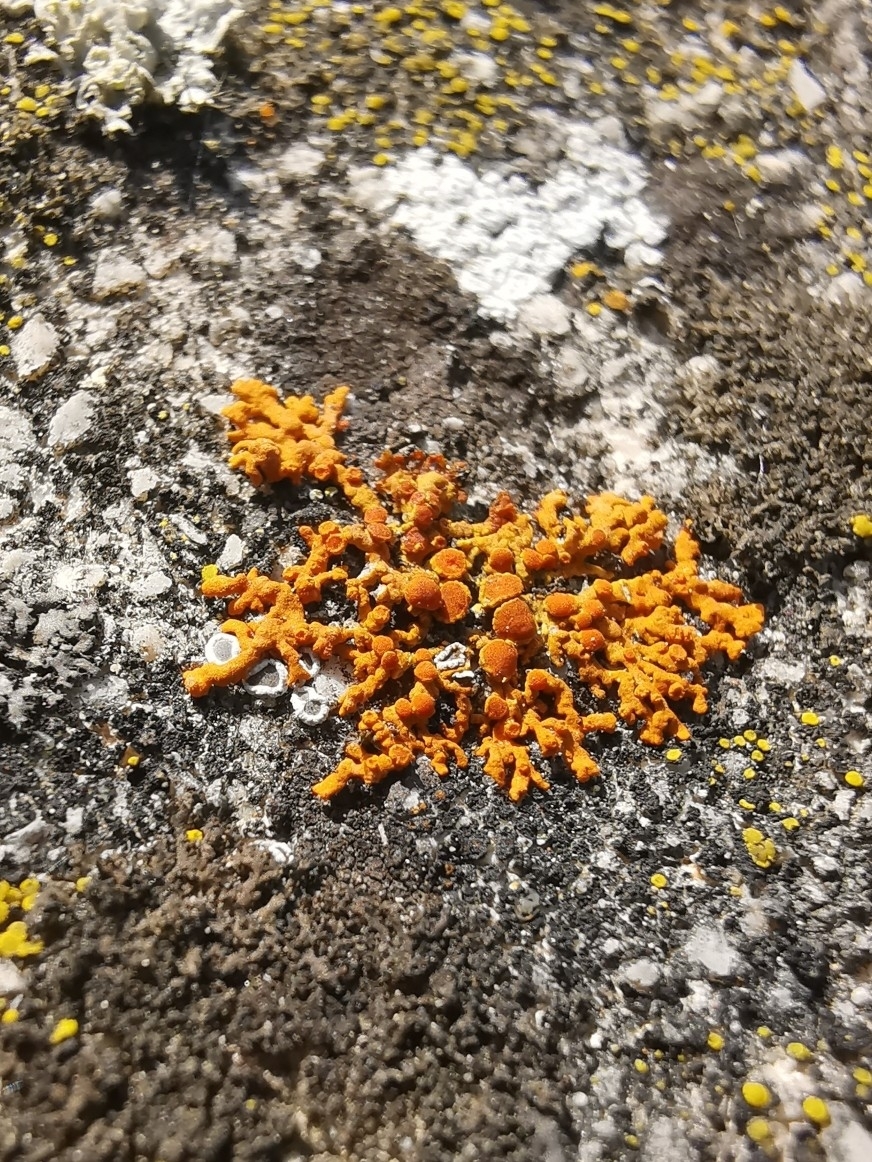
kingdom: Fungi
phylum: Ascomycota
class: Lecanoromycetes
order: Teloschistales
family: Teloschistaceae
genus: Xanthoria
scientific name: Xanthoria elegans
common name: Elegant sunburst lichen
